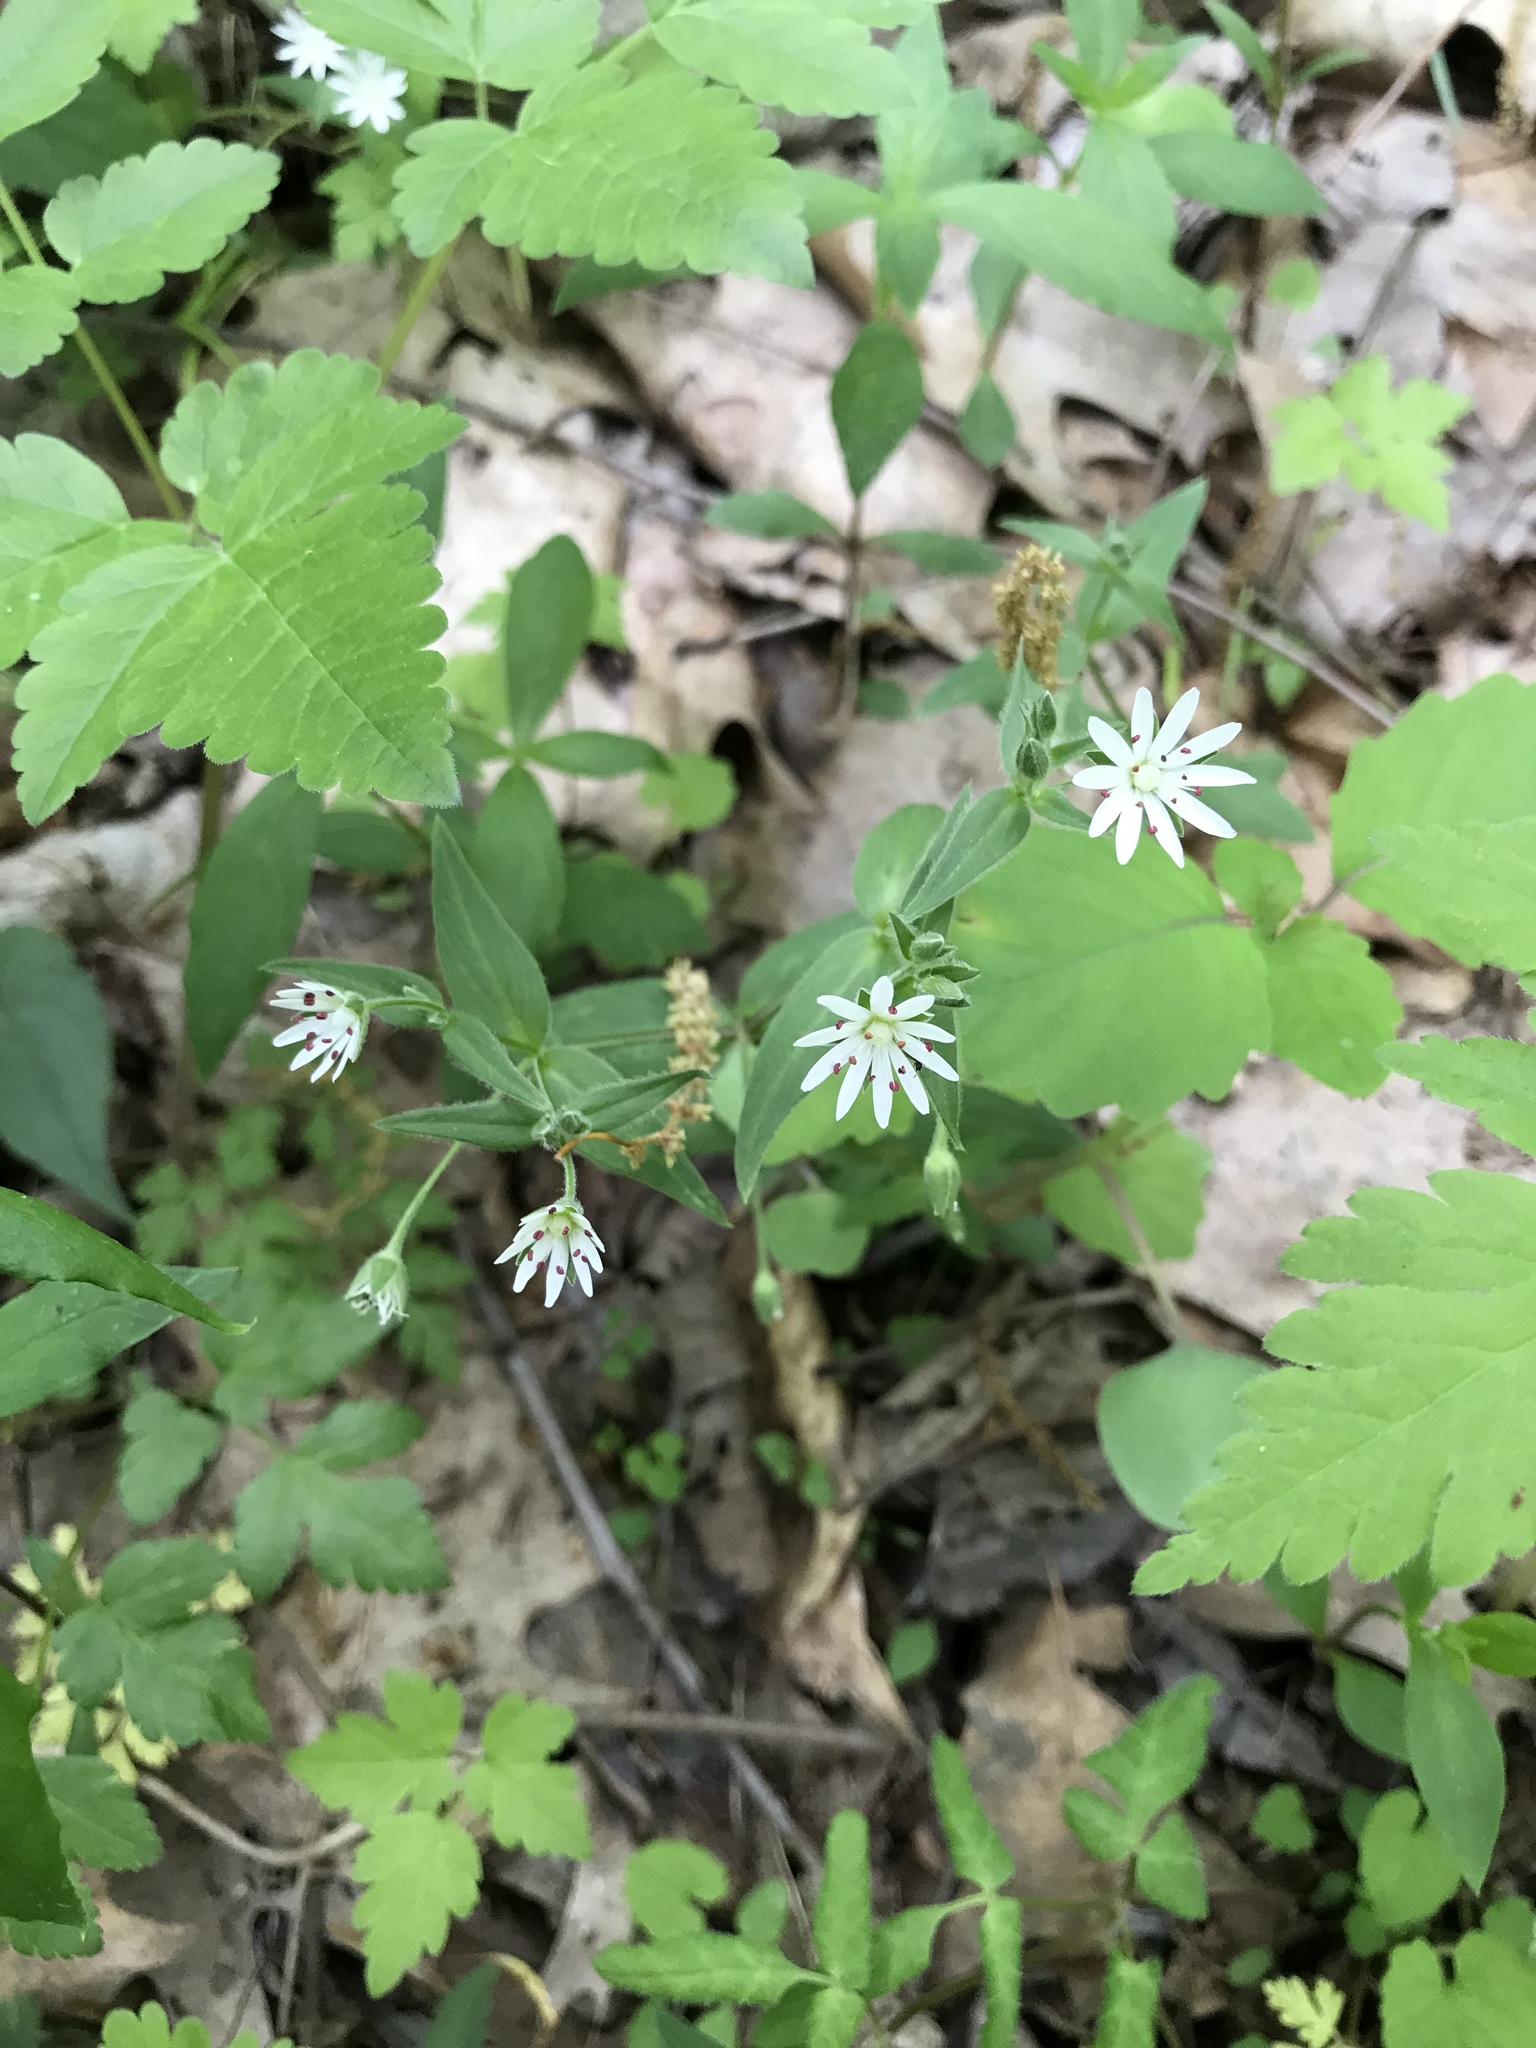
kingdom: Plantae
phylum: Tracheophyta
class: Magnoliopsida
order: Caryophyllales
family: Caryophyllaceae
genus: Stellaria
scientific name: Stellaria pubera
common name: Star chickweed
